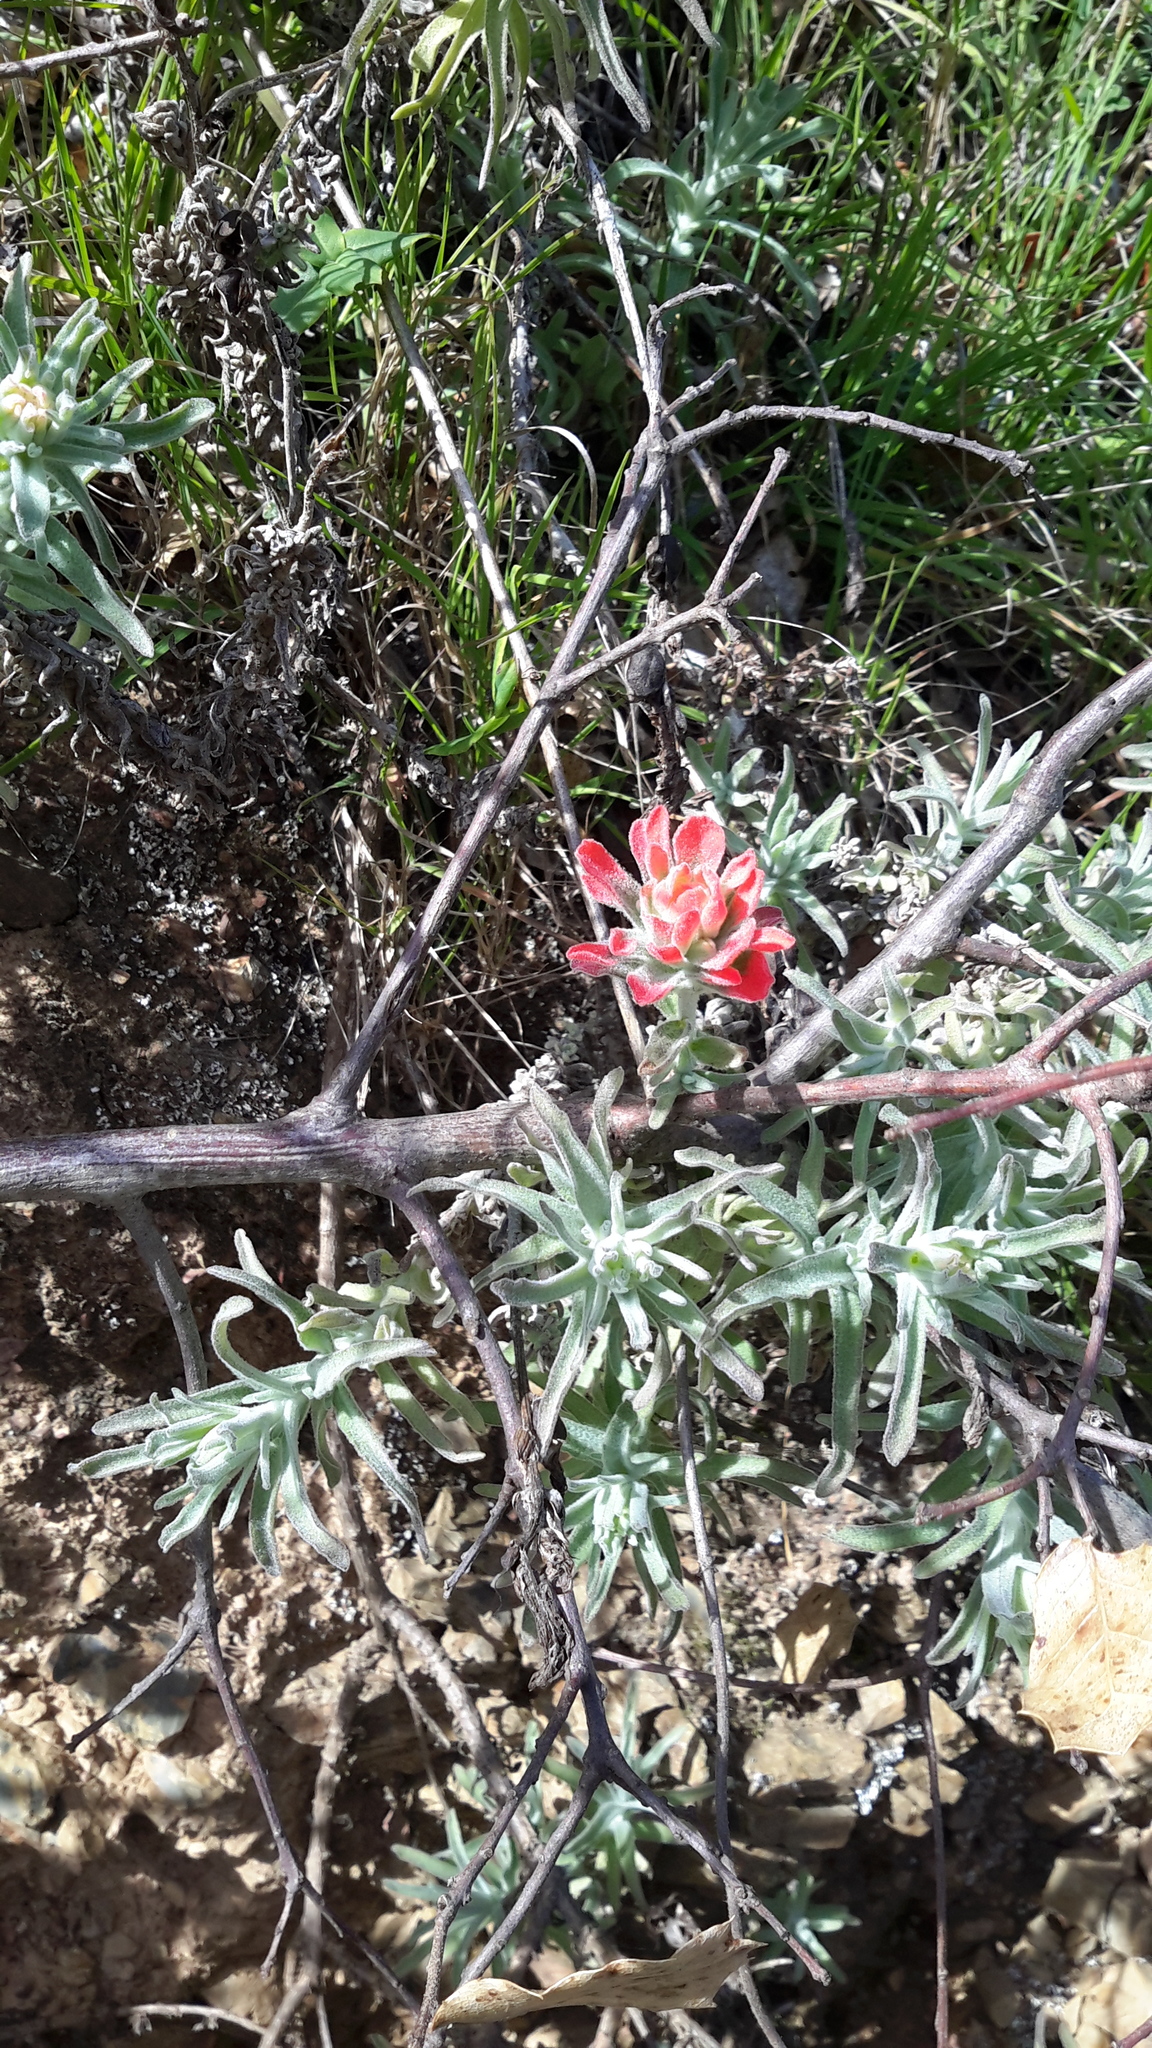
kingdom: Plantae
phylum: Tracheophyta
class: Magnoliopsida
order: Lamiales
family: Orobanchaceae
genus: Castilleja
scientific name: Castilleja foliolosa
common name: Woolly indian paintbrush
